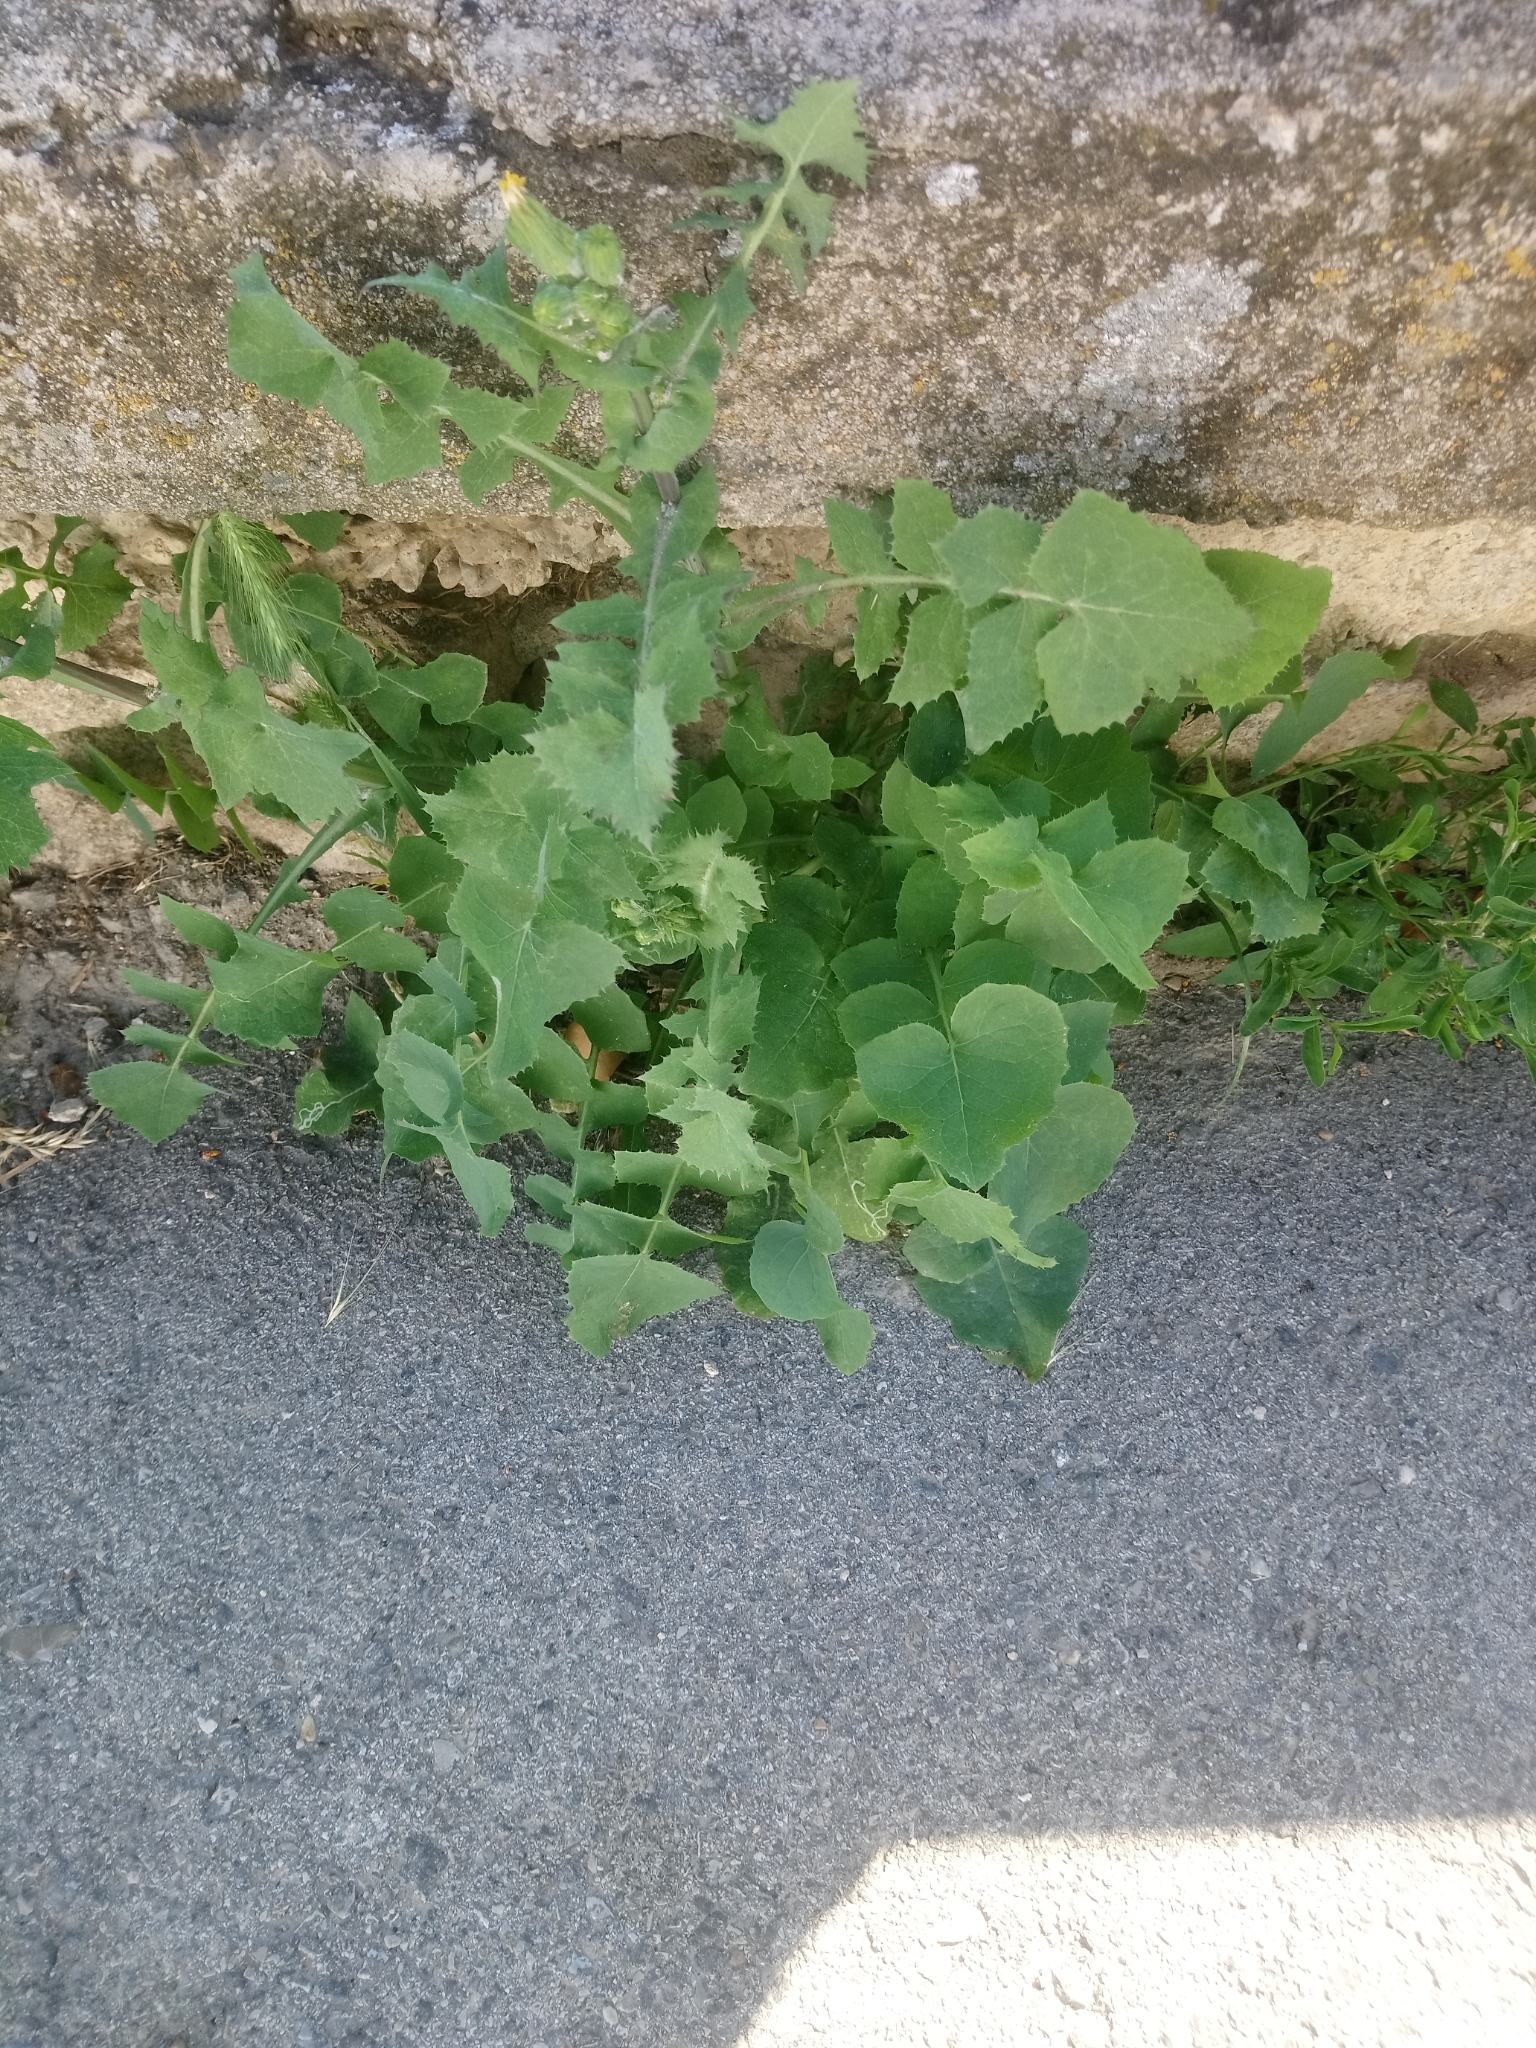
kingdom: Plantae
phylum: Tracheophyta
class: Magnoliopsida
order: Asterales
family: Asteraceae
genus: Sonchus
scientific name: Sonchus oleraceus
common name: Common sowthistle
